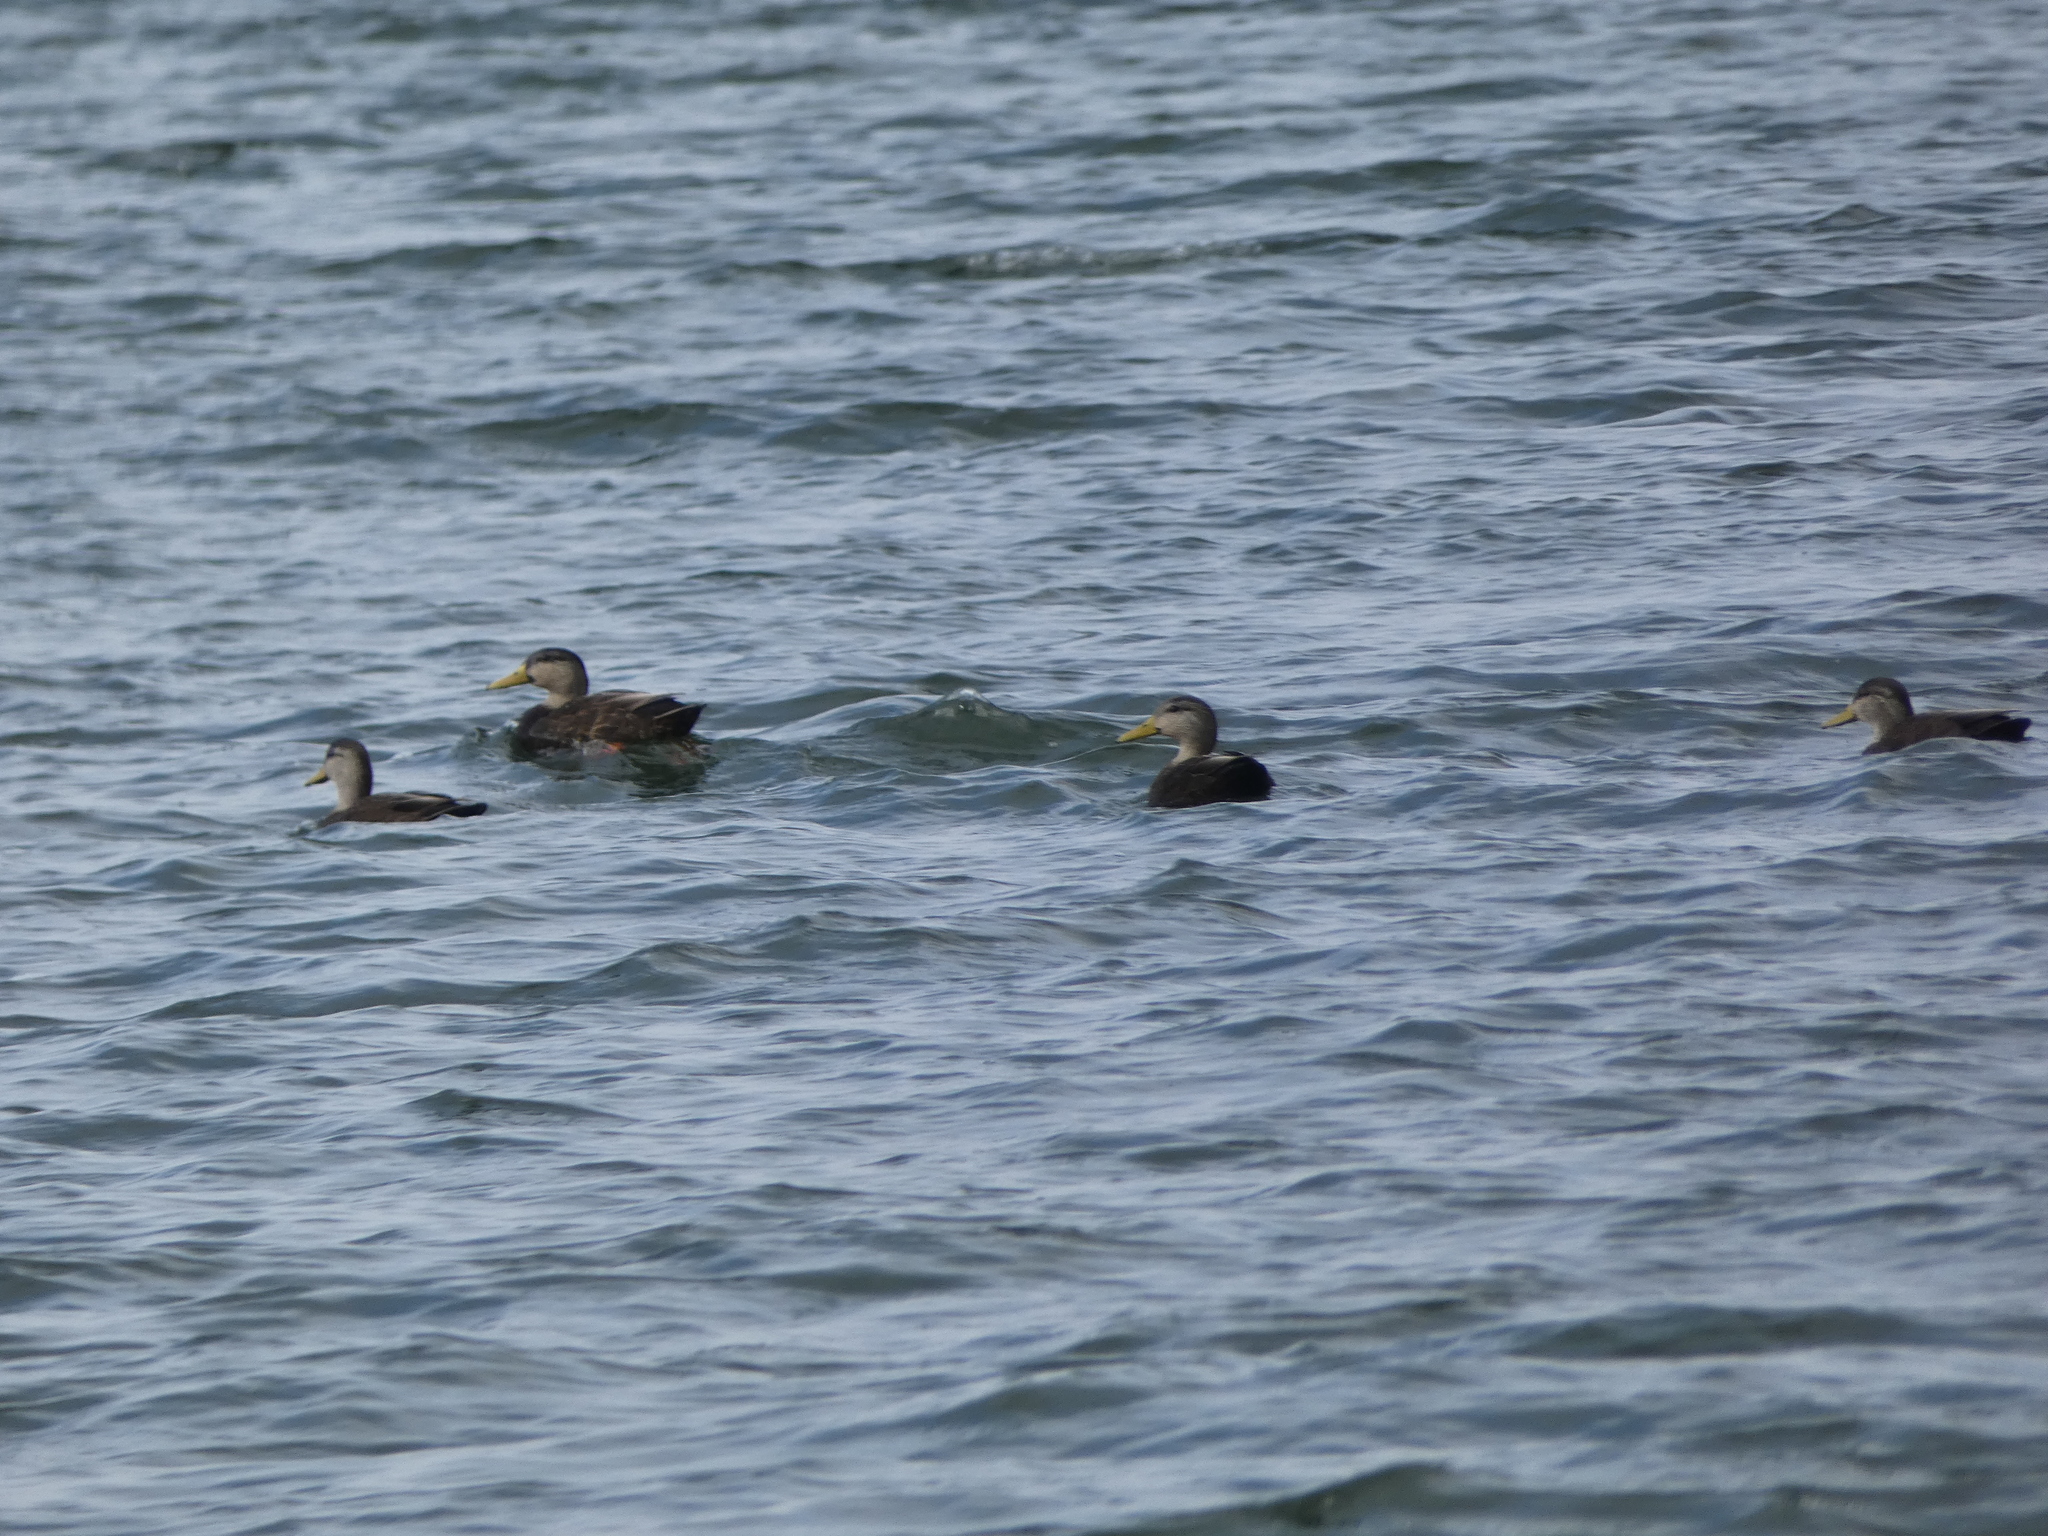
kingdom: Animalia
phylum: Chordata
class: Aves
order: Anseriformes
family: Anatidae
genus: Anas
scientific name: Anas rubripes
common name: American black duck
